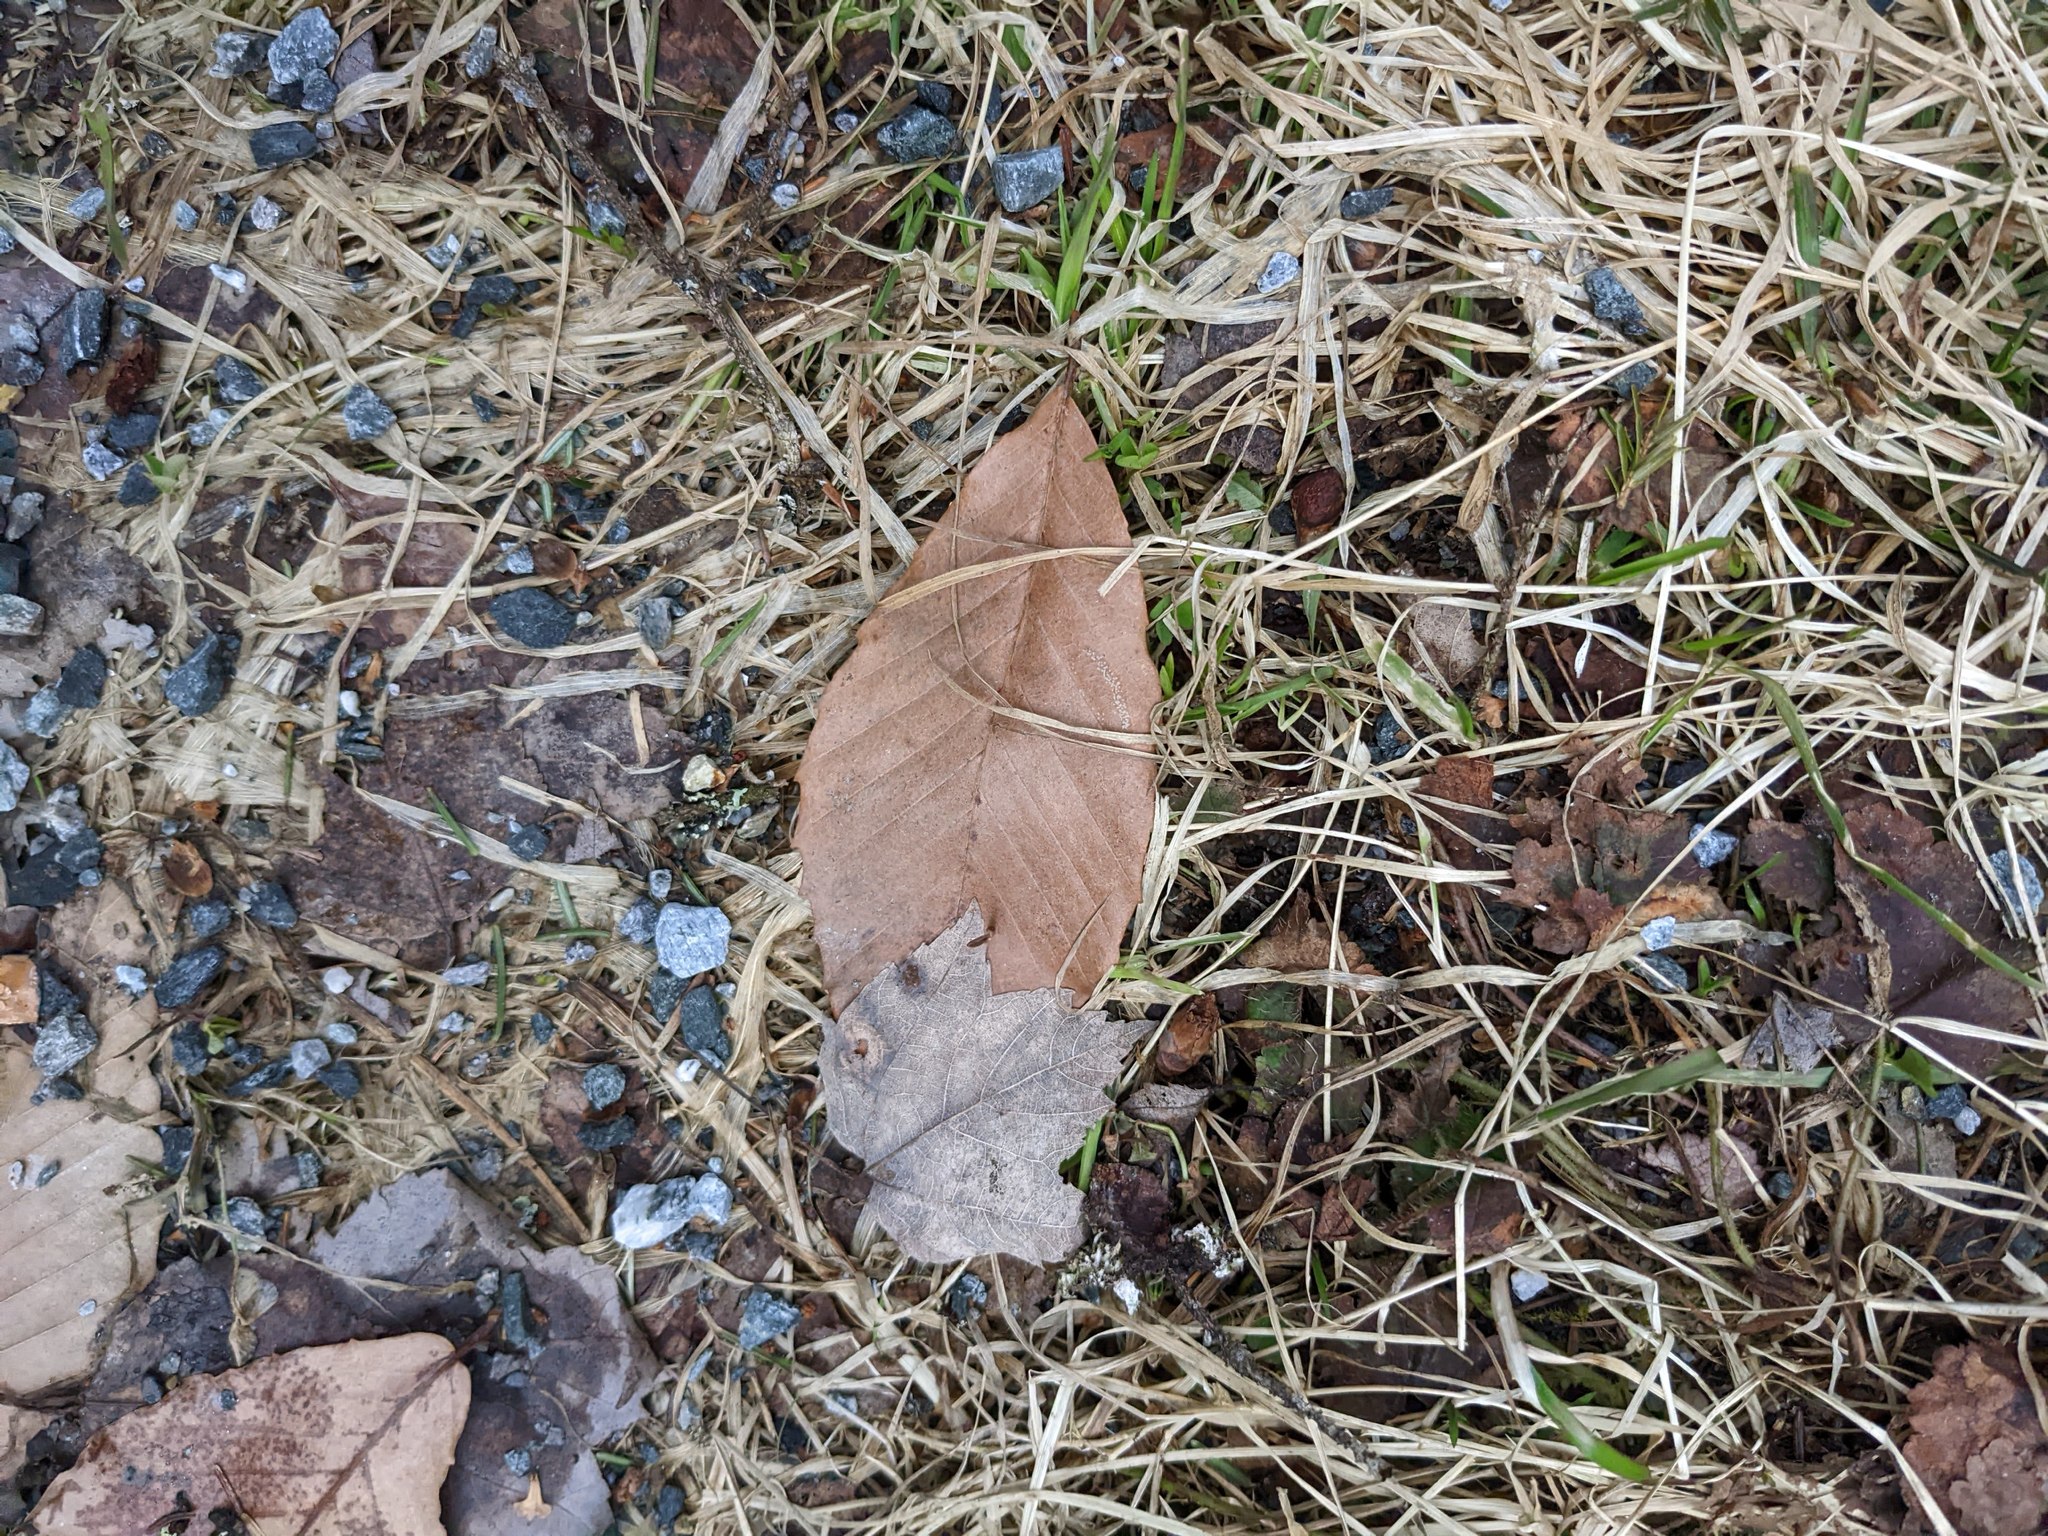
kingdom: Plantae
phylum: Tracheophyta
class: Magnoliopsida
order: Fagales
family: Fagaceae
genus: Fagus
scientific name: Fagus grandifolia
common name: American beech
